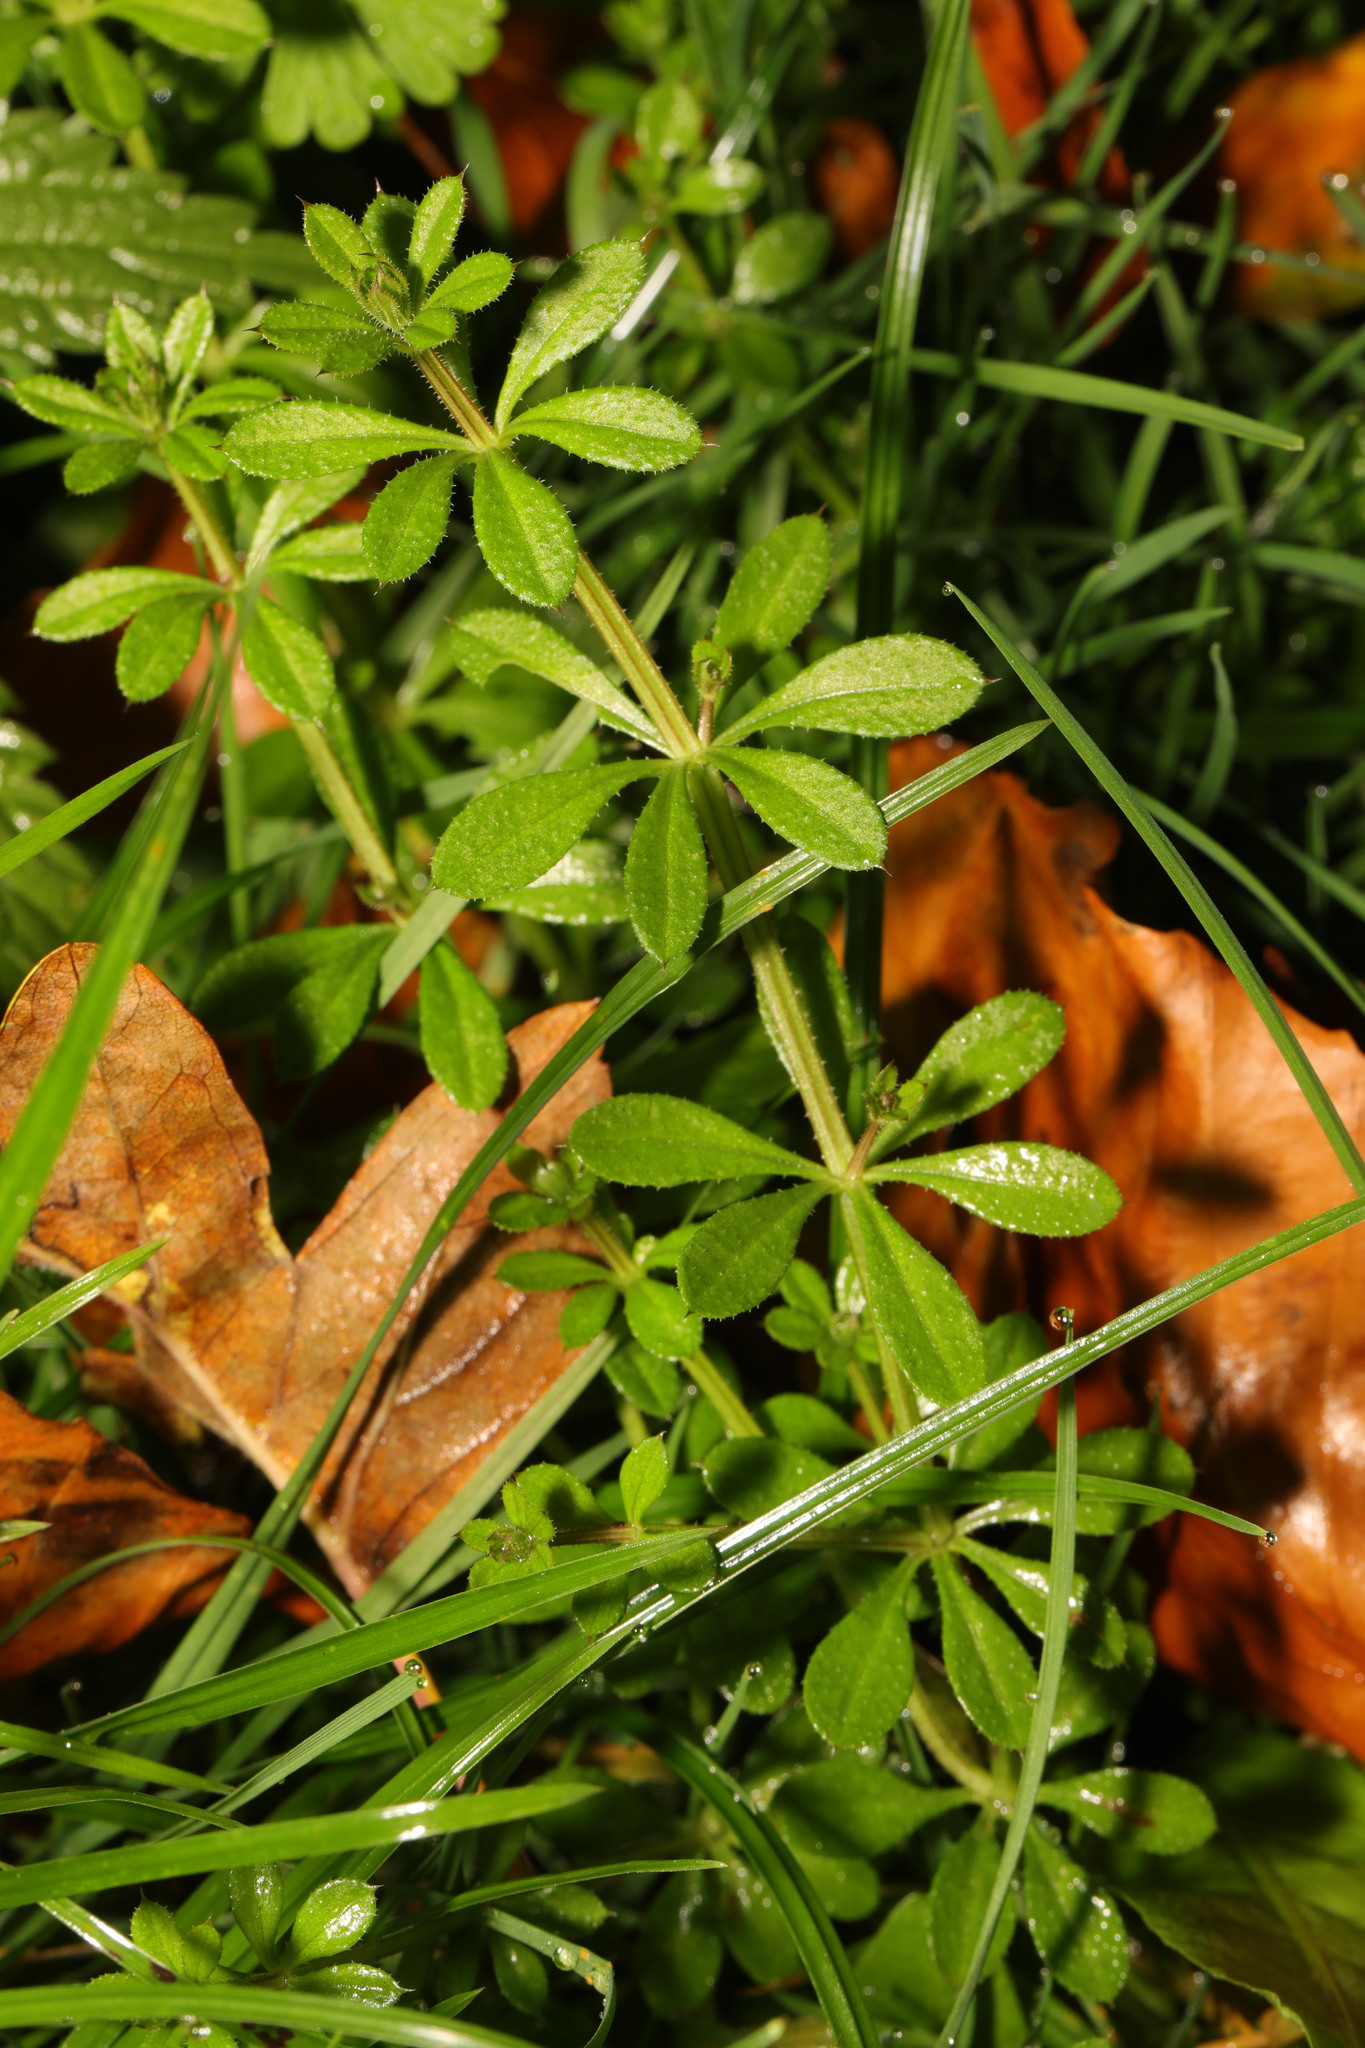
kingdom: Plantae
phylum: Tracheophyta
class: Magnoliopsida
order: Gentianales
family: Rubiaceae
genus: Galium
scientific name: Galium aparine
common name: Cleavers
